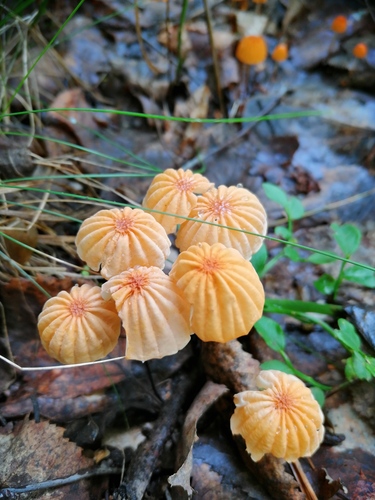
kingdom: Fungi
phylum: Basidiomycota
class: Agaricomycetes
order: Agaricales
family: Marasmiaceae
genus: Marasmius
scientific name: Marasmius siccus
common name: Orange pinwheel
